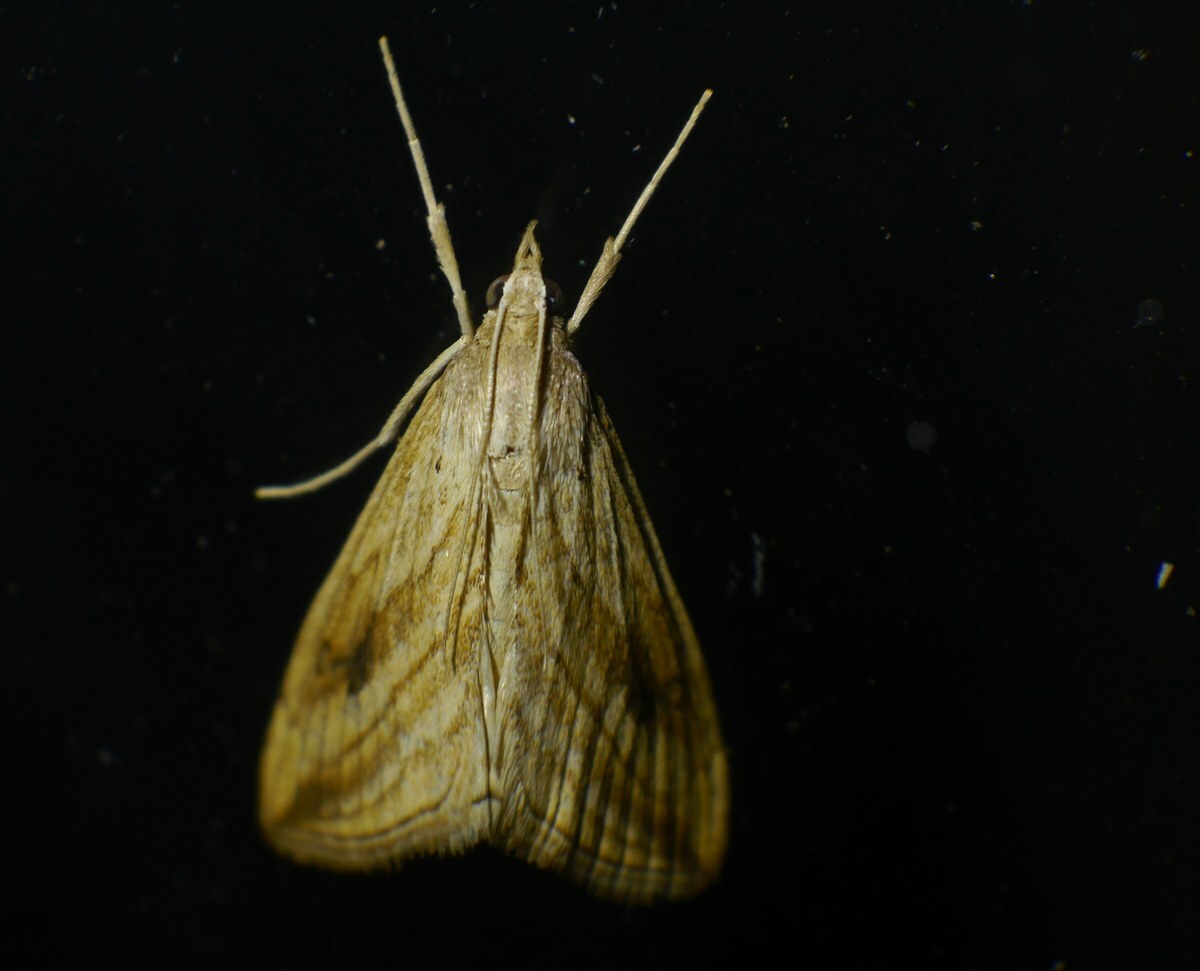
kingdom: Animalia
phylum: Arthropoda
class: Insecta
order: Lepidoptera
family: Crambidae
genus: Evergestis
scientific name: Evergestis forficalis
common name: Garden pebble
